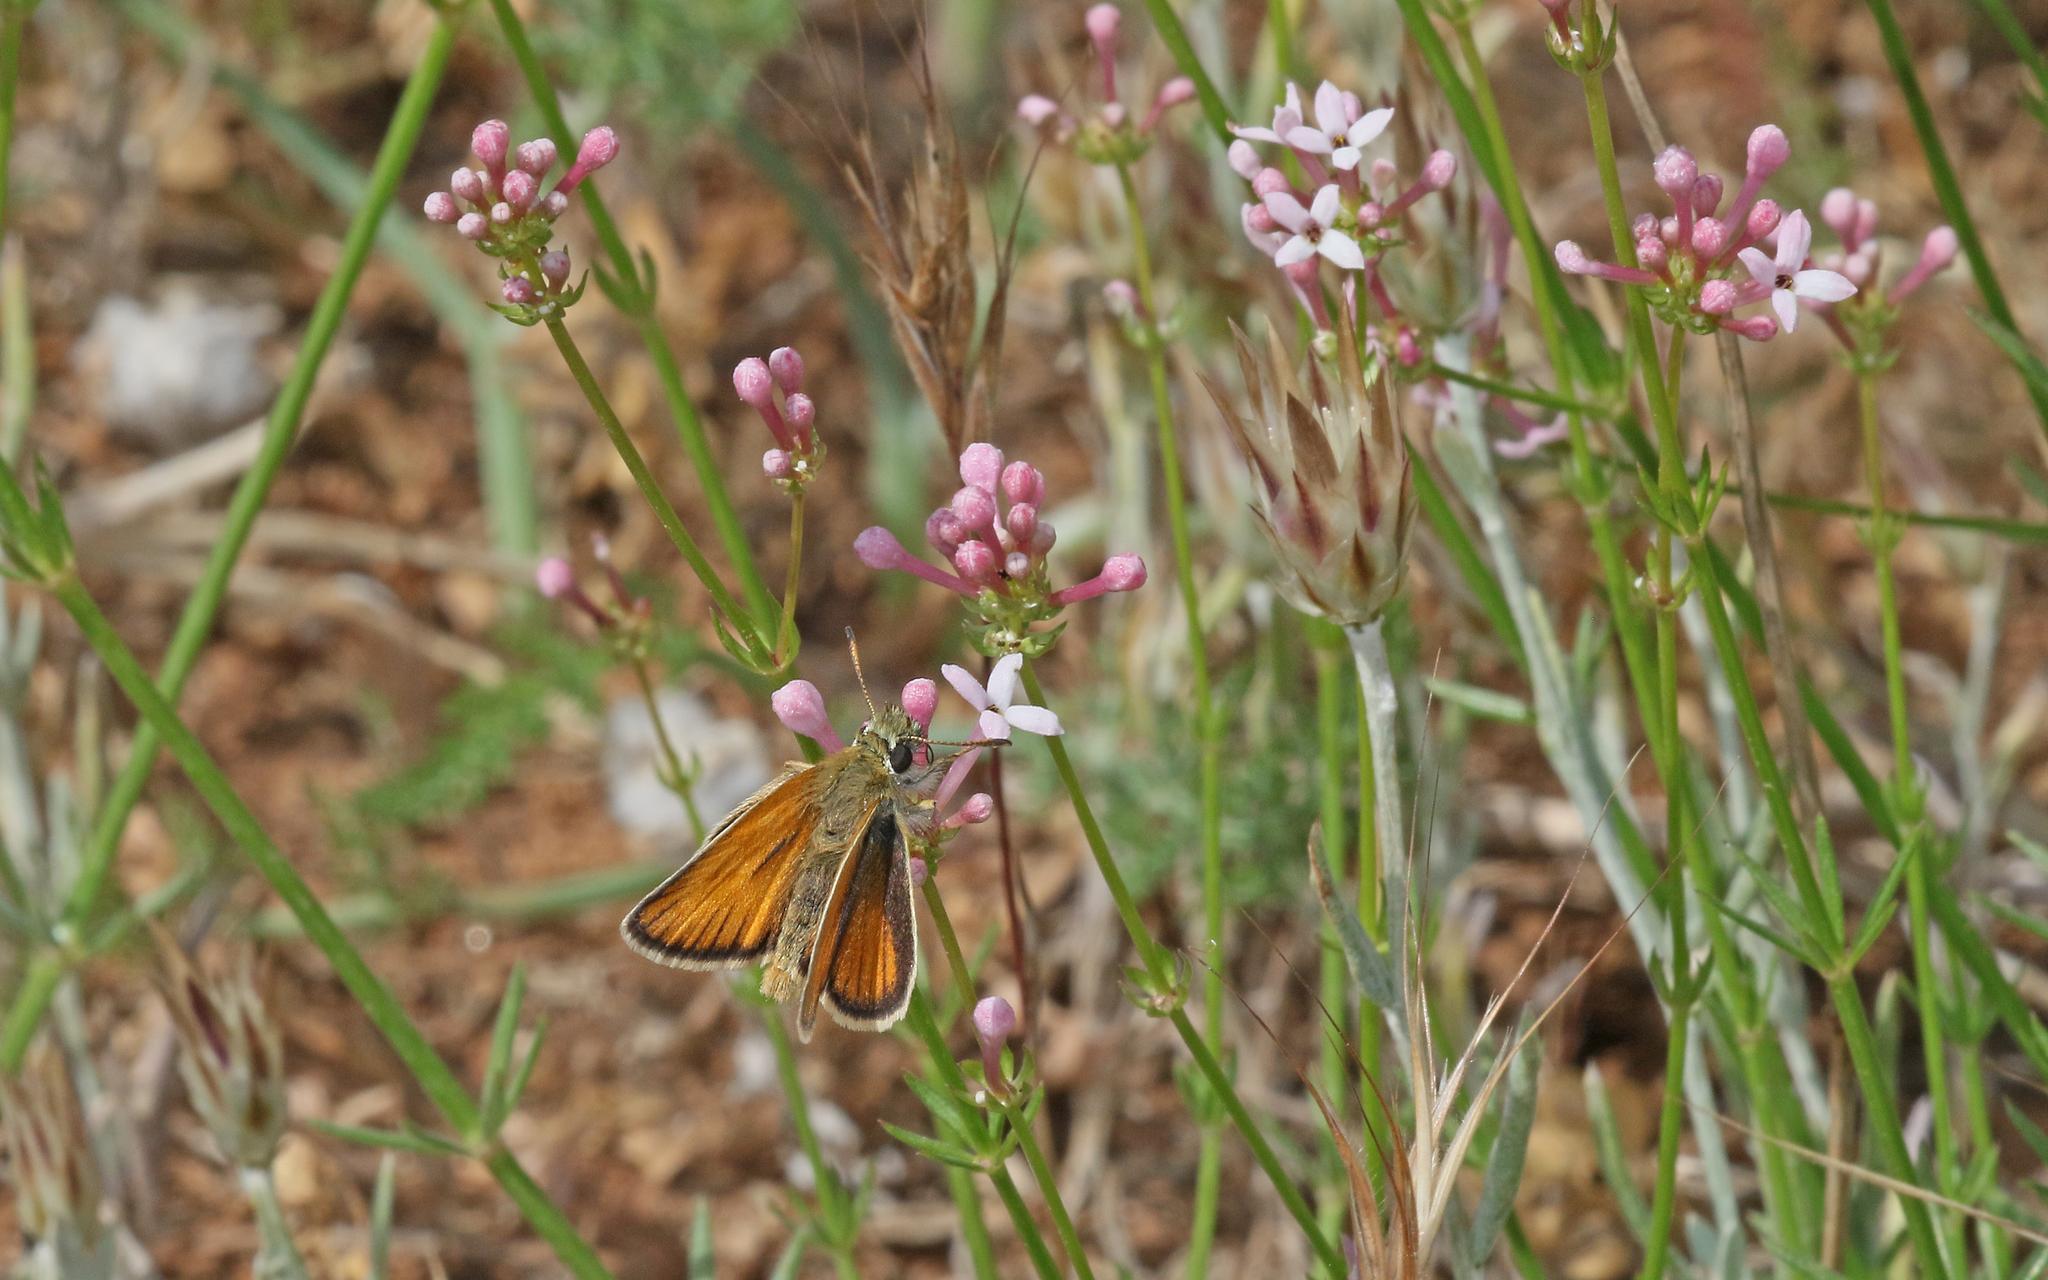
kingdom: Animalia
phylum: Arthropoda
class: Insecta
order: Lepidoptera
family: Hesperiidae
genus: Thymelicus
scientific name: Thymelicus lineola
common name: Essex skipper
